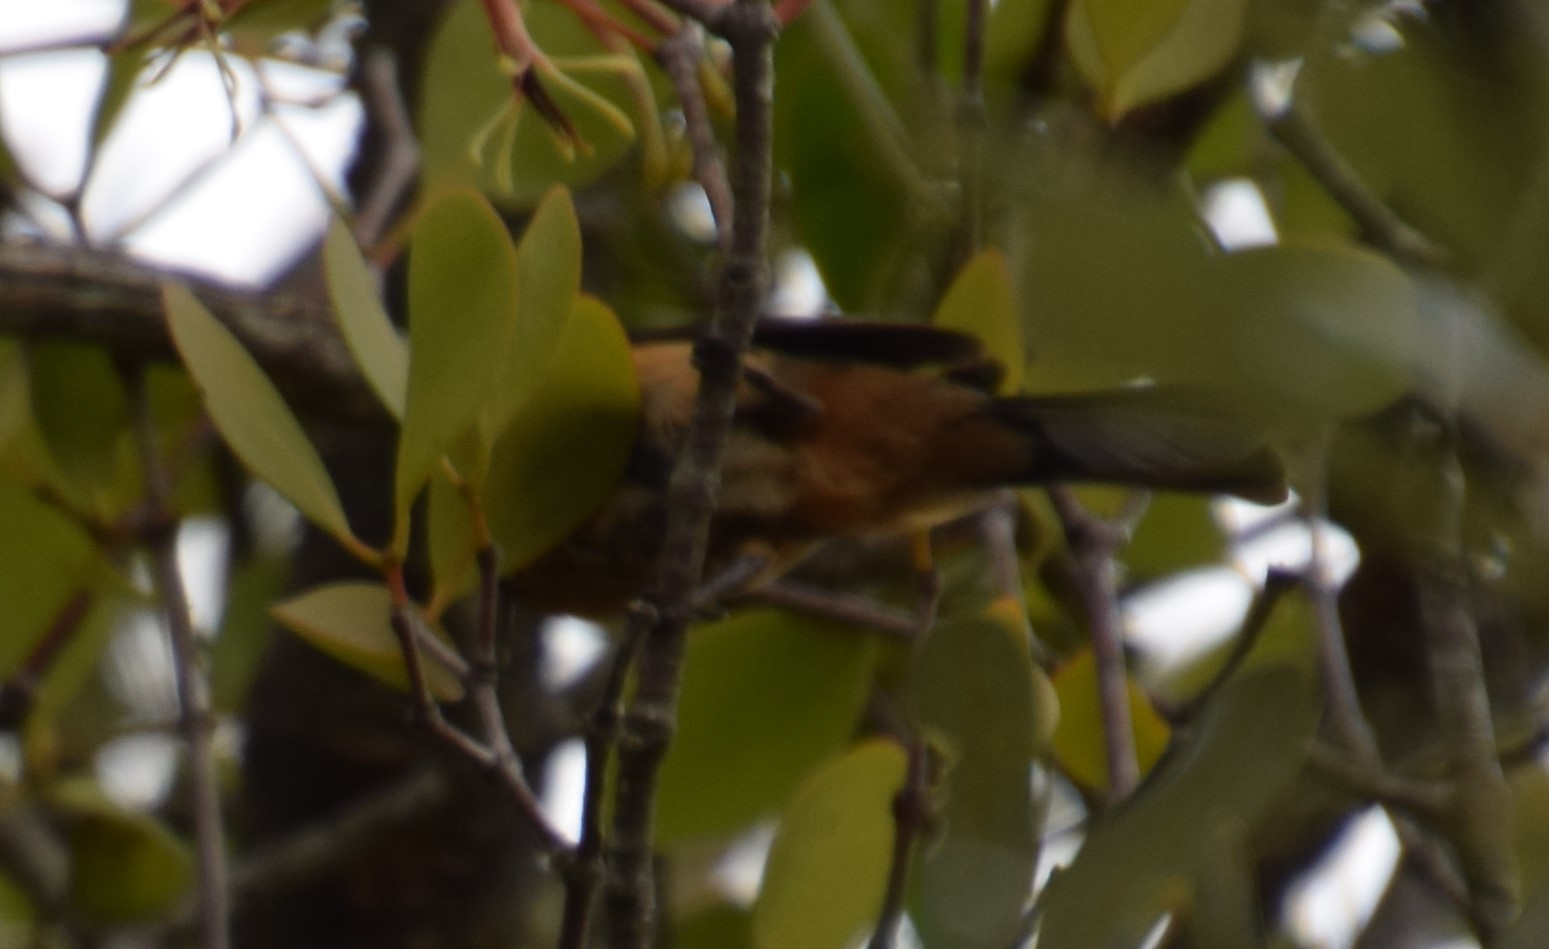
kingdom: Animalia
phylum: Chordata
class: Aves
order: Passeriformes
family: Meliphagidae
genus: Acanthorhynchus
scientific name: Acanthorhynchus tenuirostris
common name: Eastern spinebill
